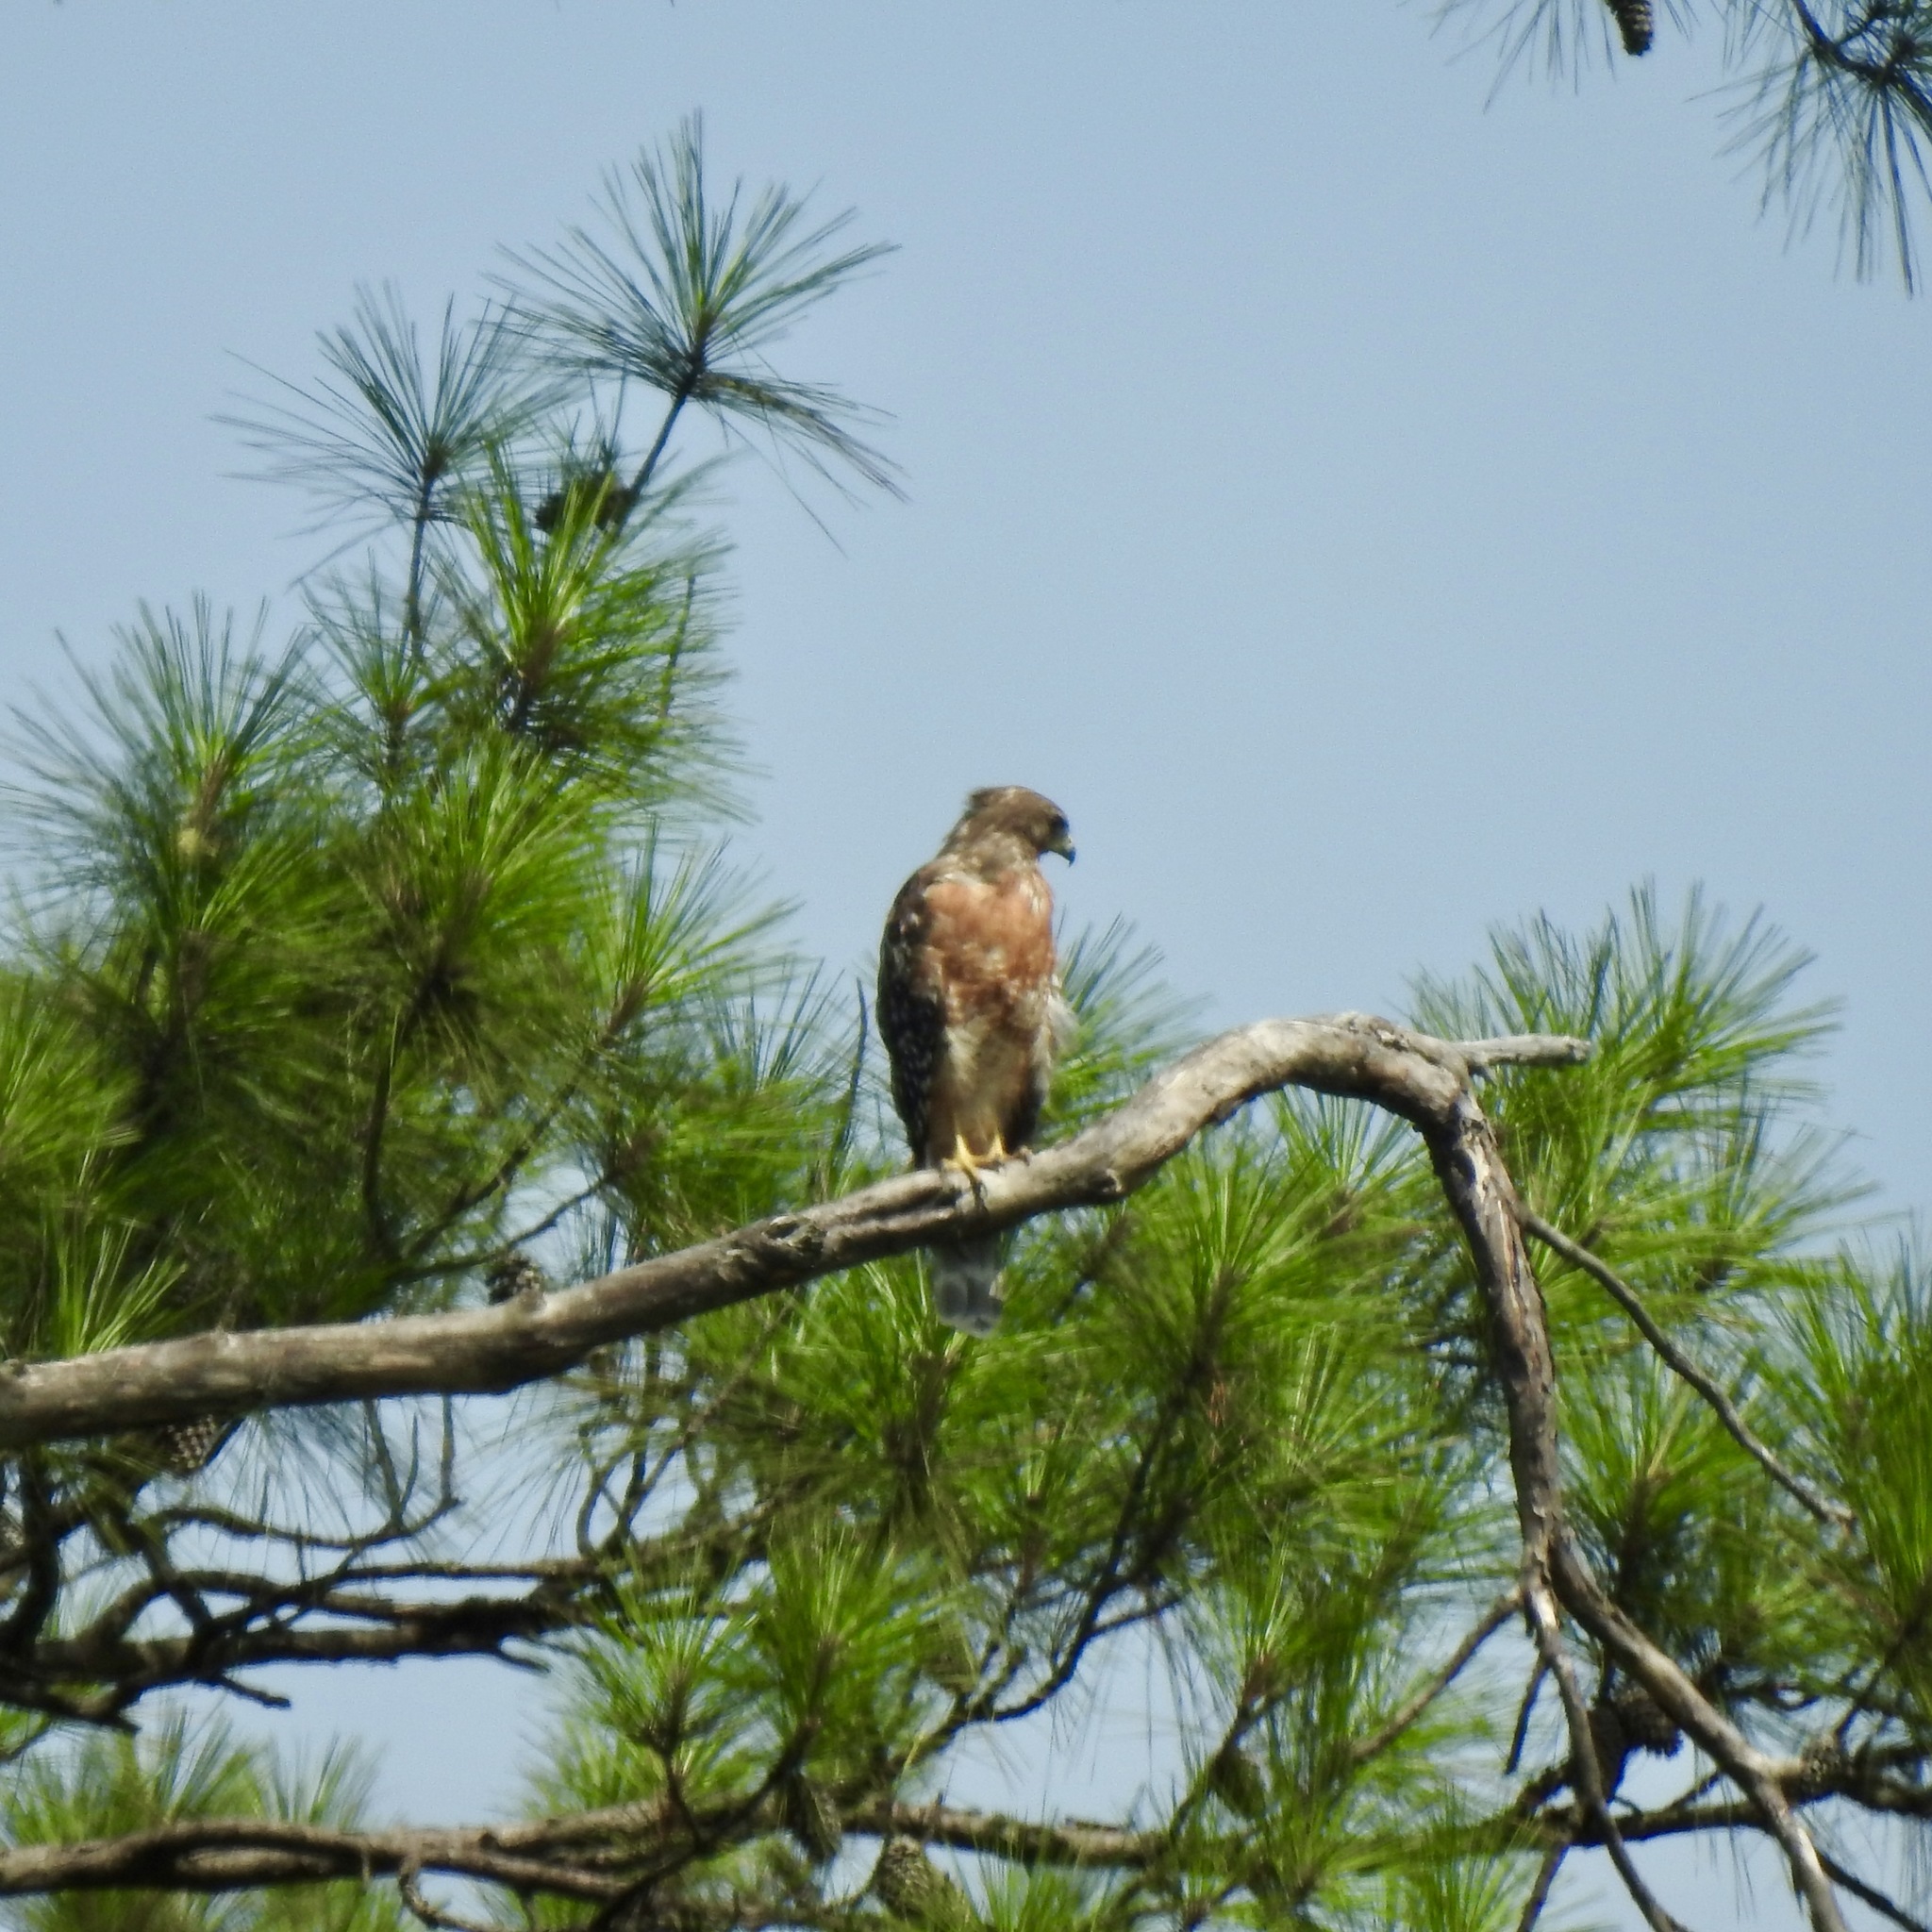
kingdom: Animalia
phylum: Chordata
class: Aves
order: Accipitriformes
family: Accipitridae
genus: Buteo
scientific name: Buteo lineatus
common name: Red-shouldered hawk
